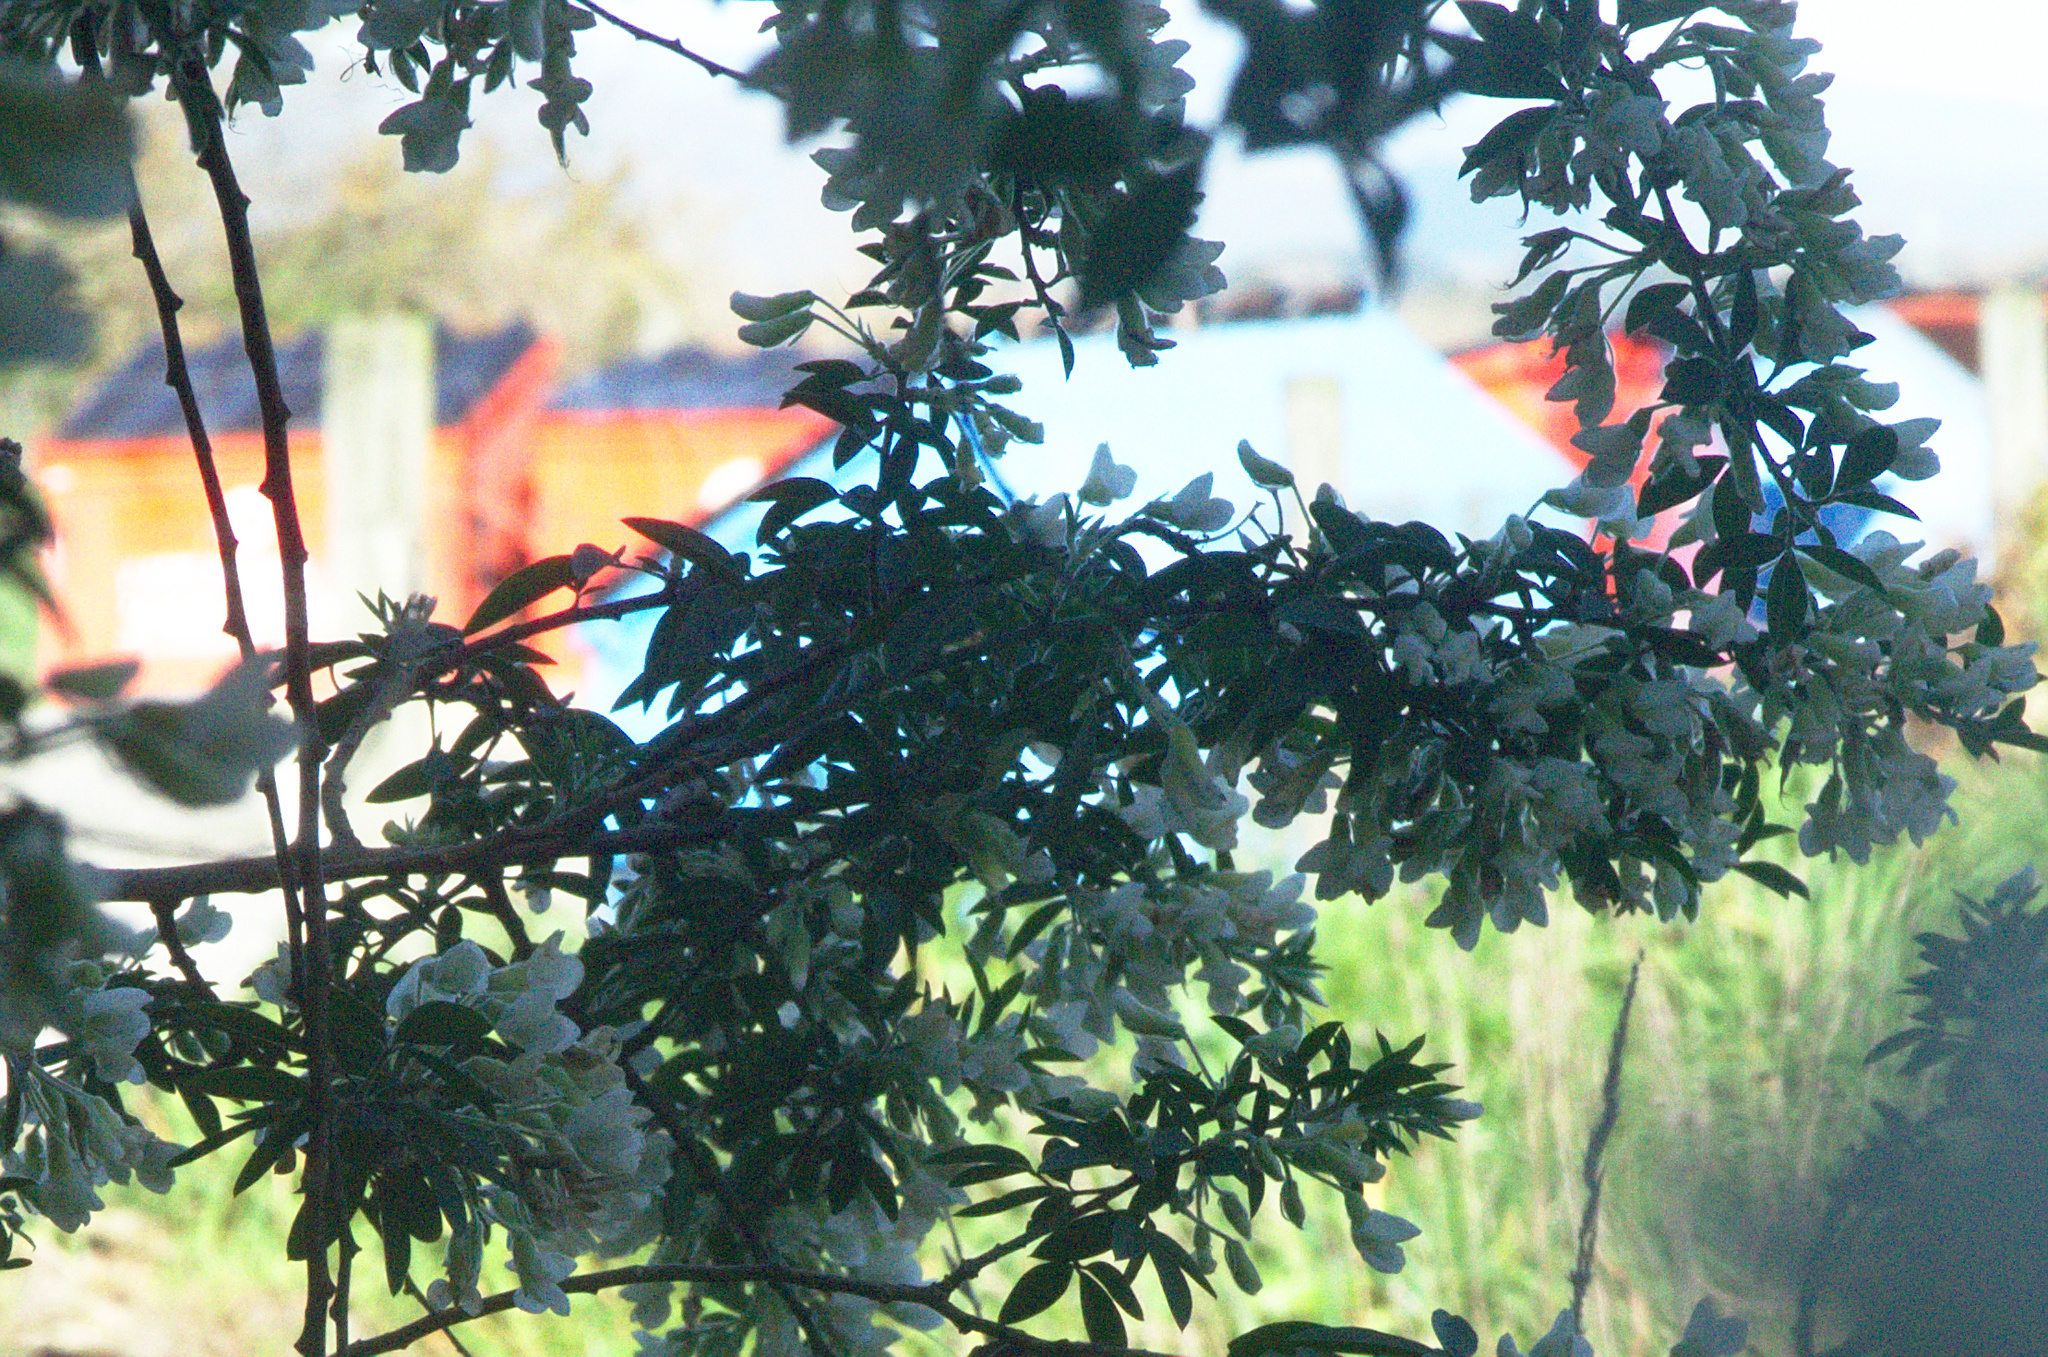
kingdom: Plantae
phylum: Tracheophyta
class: Magnoliopsida
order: Fabales
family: Fabaceae
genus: Chamaecytisus
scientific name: Chamaecytisus prolifer
